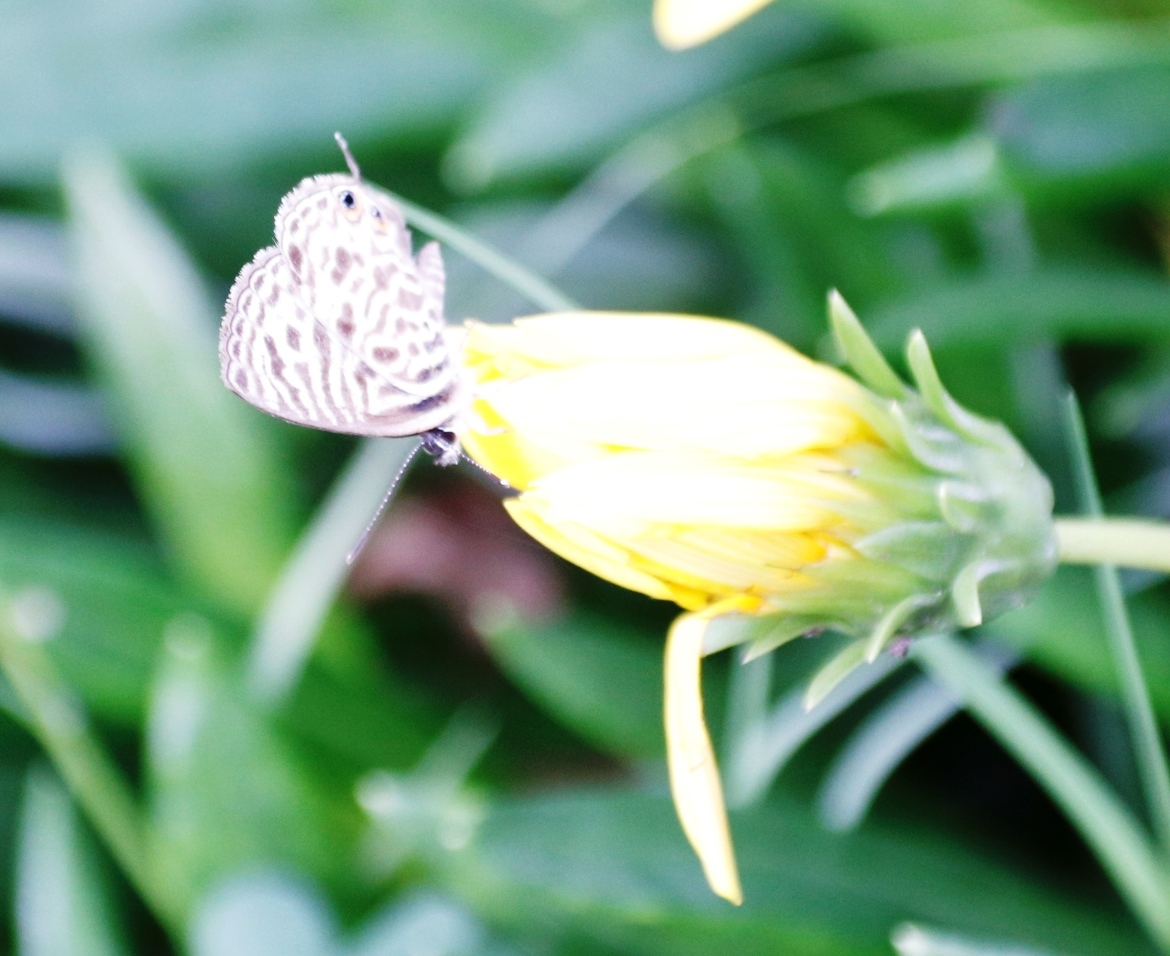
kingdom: Animalia
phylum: Arthropoda
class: Insecta
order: Lepidoptera
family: Lycaenidae
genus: Leptotes
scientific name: Leptotes
